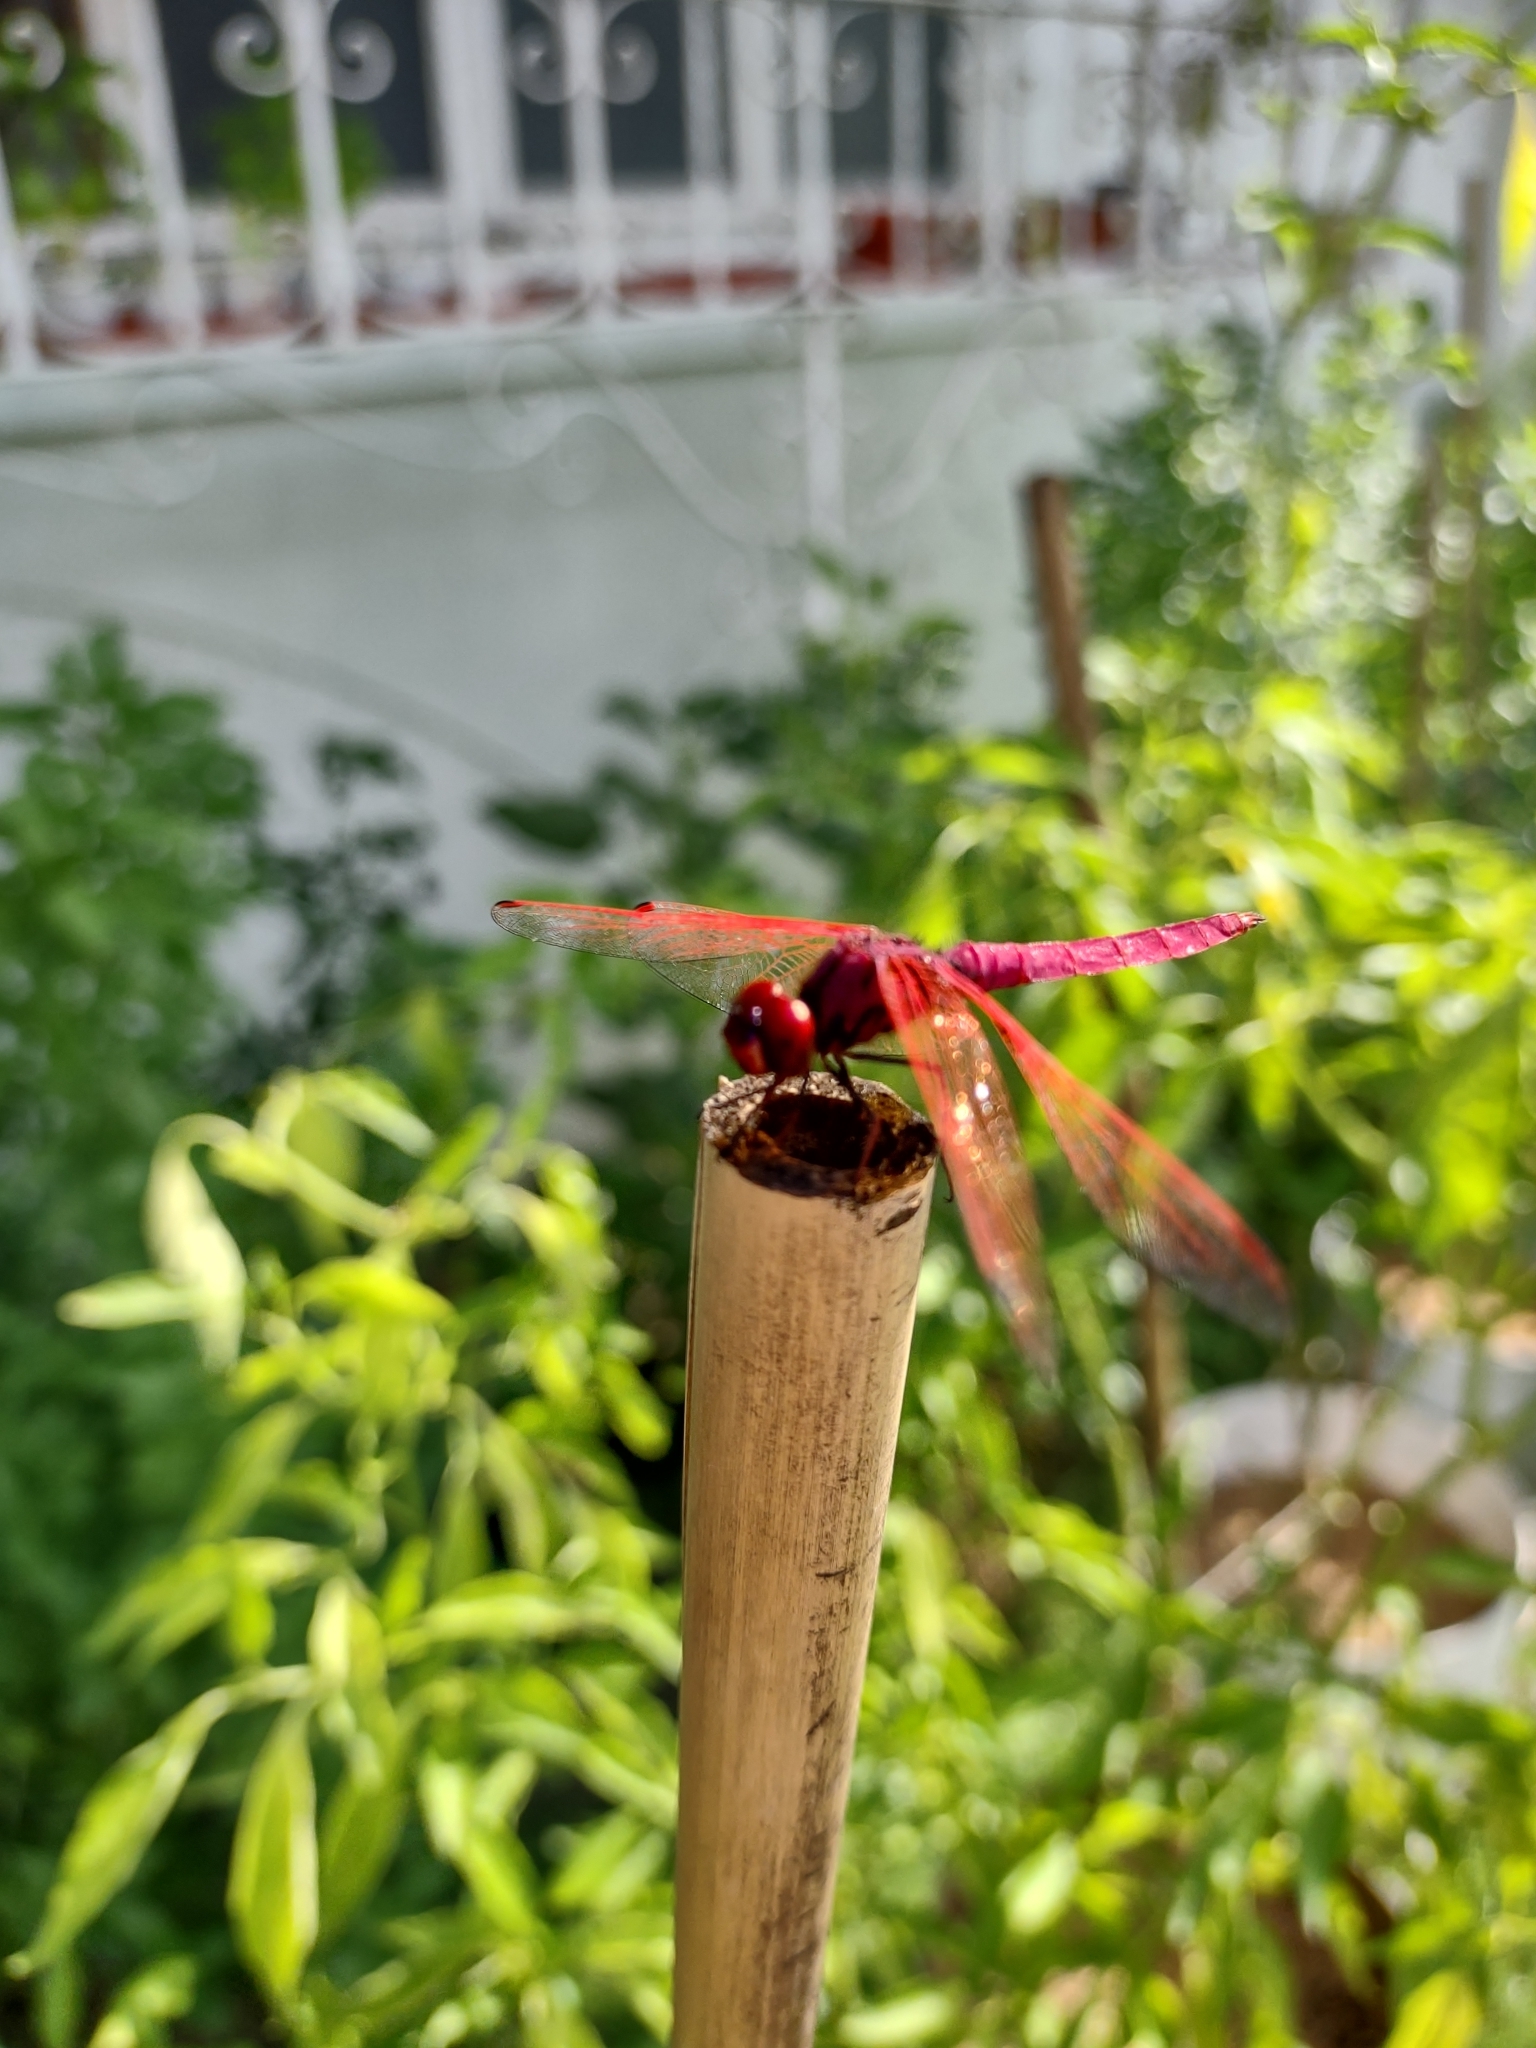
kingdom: Animalia
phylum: Arthropoda
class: Insecta
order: Odonata
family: Libellulidae
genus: Trithemis
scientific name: Trithemis aurora
